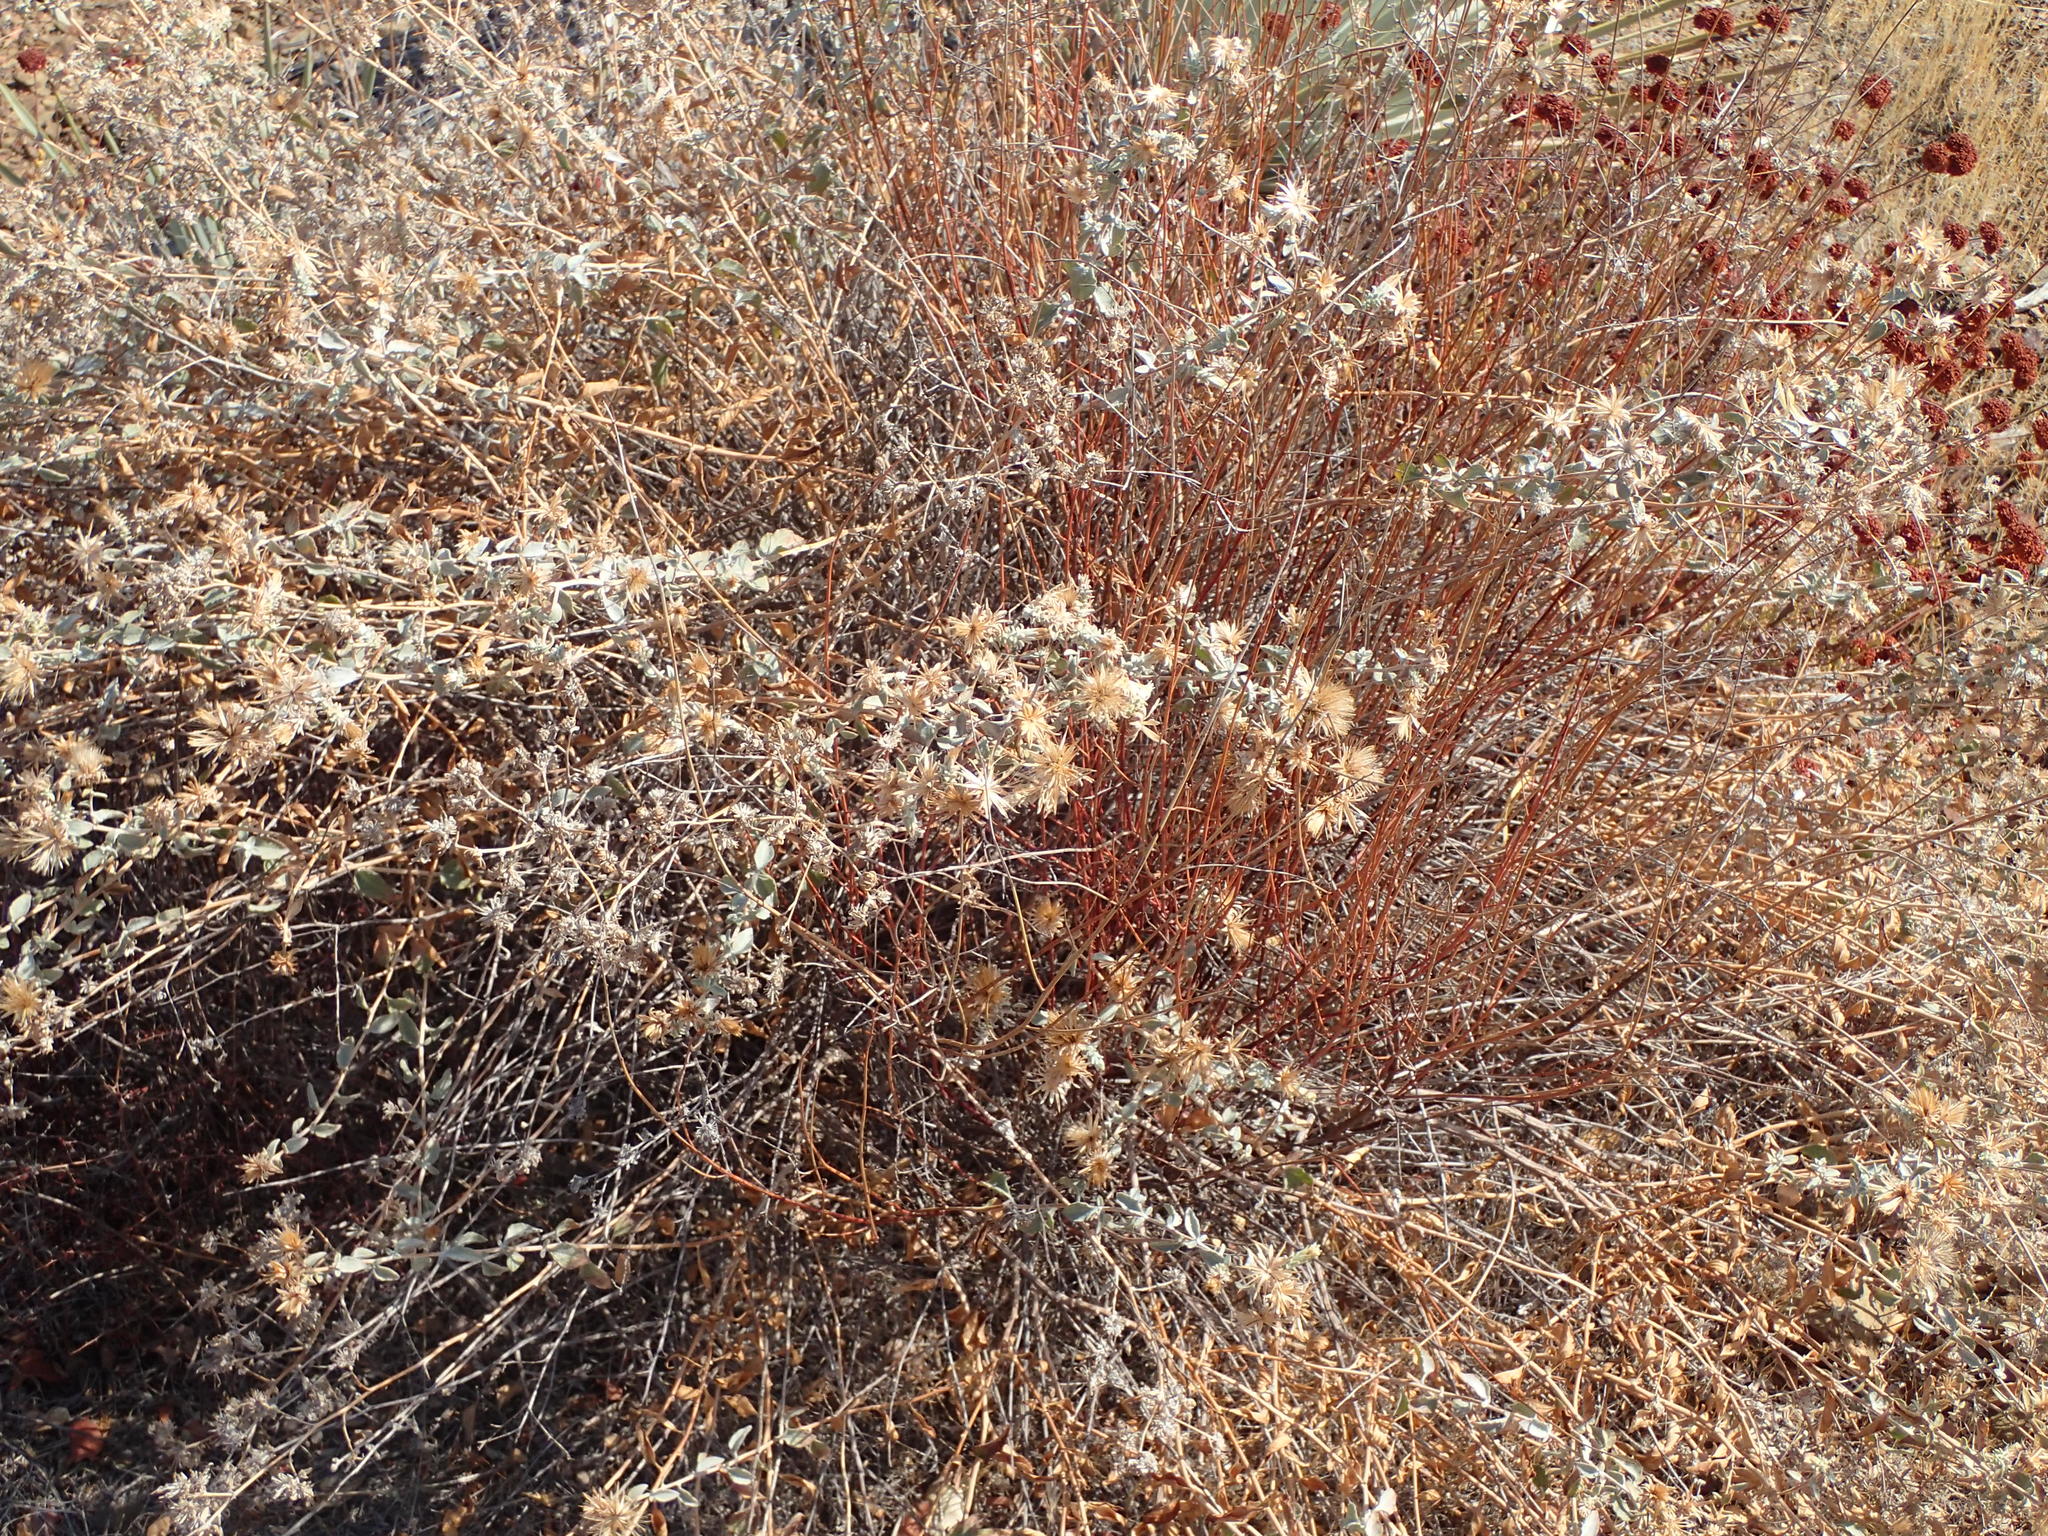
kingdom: Plantae
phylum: Tracheophyta
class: Magnoliopsida
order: Asterales
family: Asteraceae
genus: Brickellia
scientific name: Brickellia nevinii
